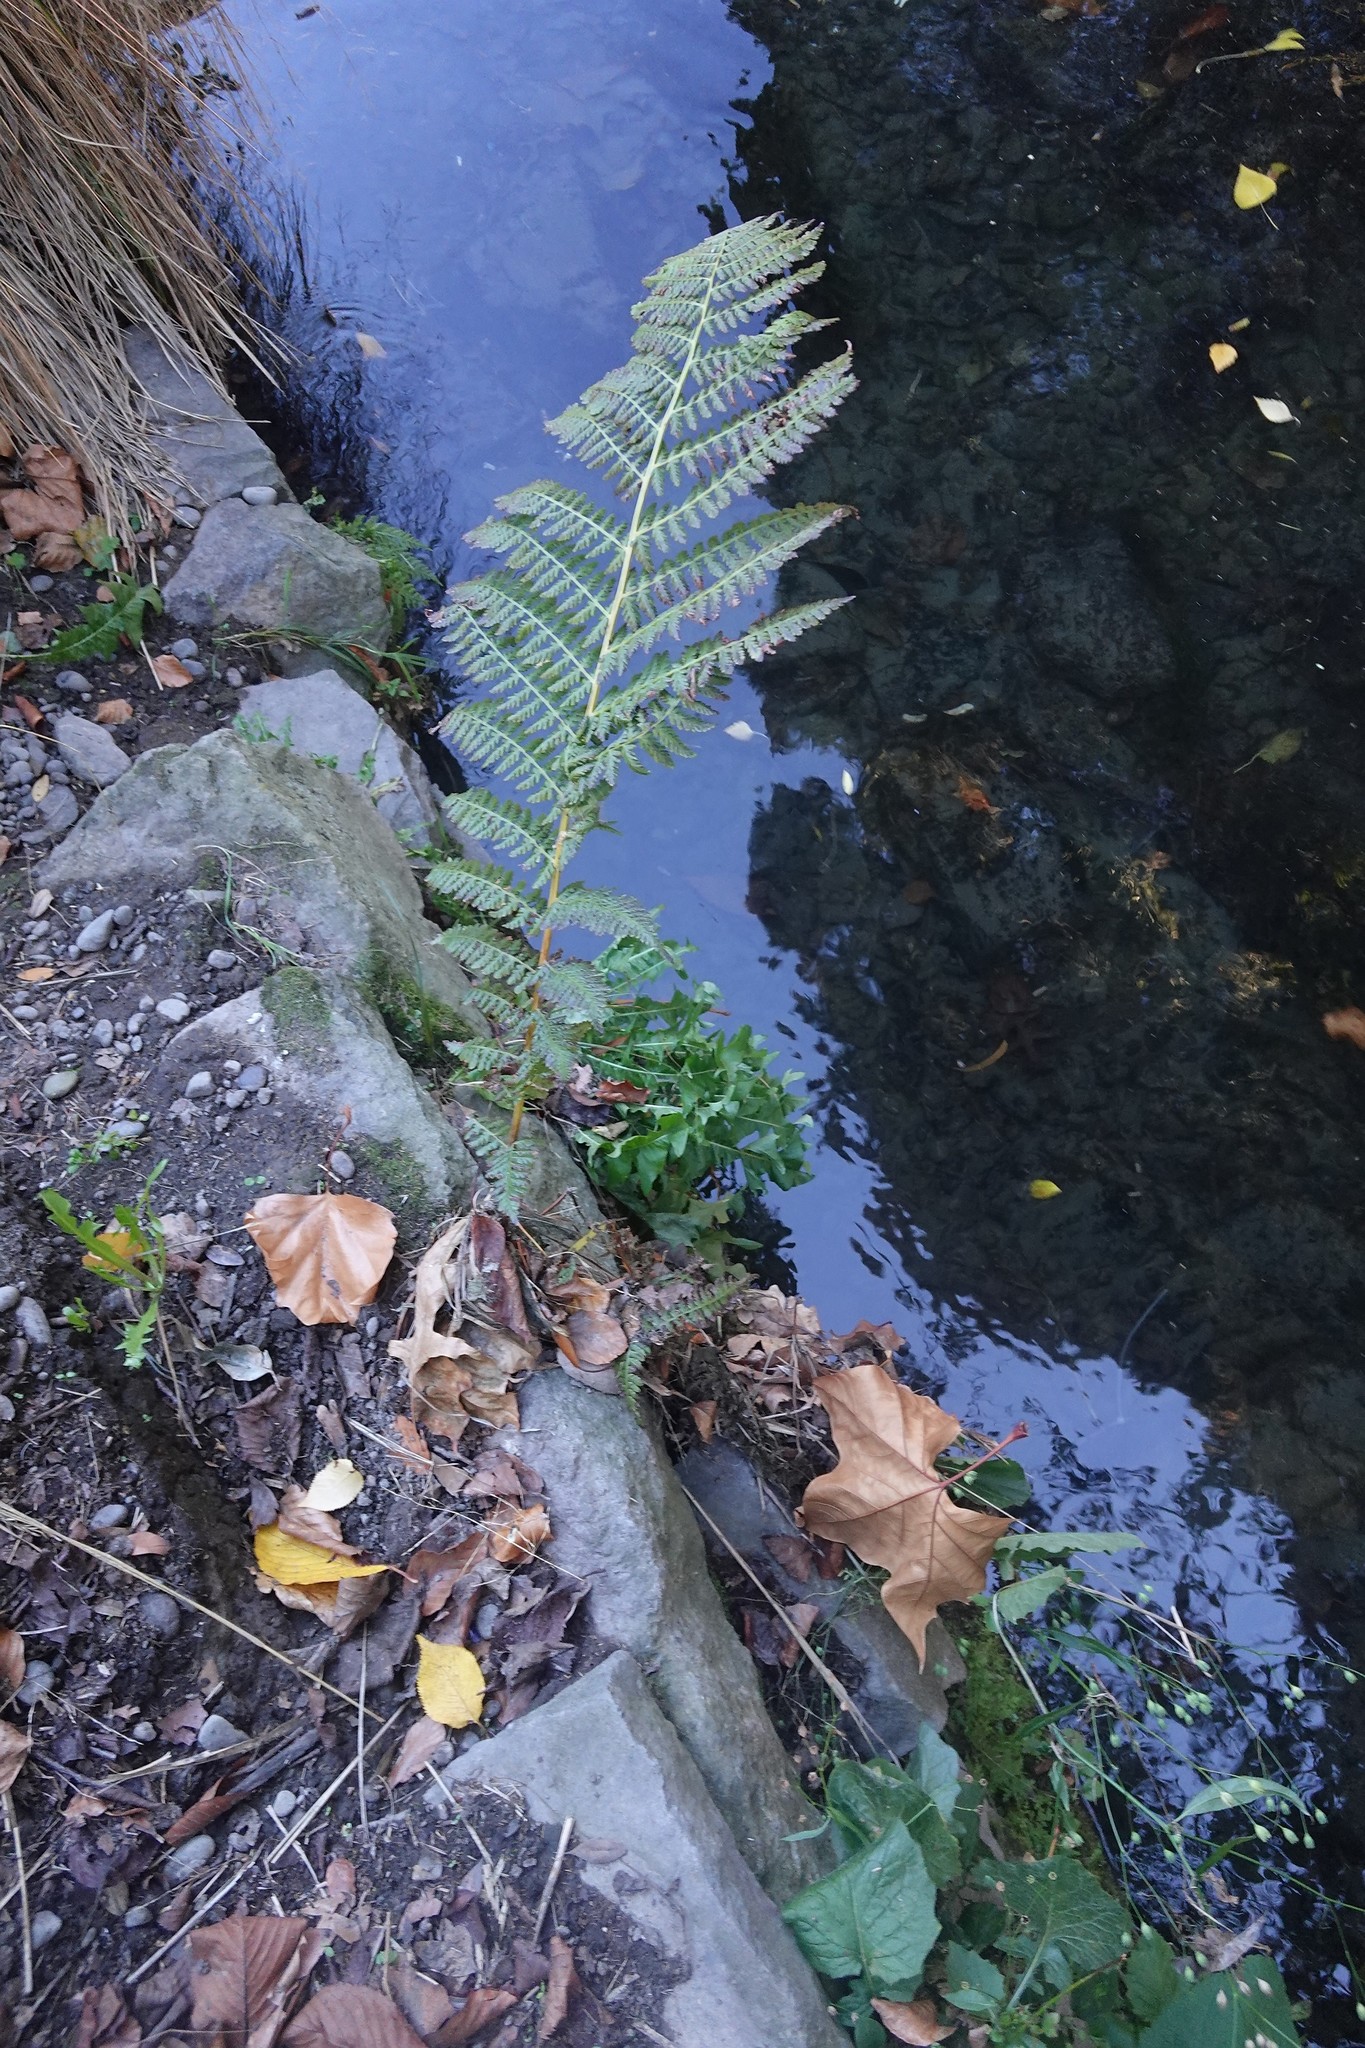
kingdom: Plantae
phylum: Tracheophyta
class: Polypodiopsida
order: Polypodiales
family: Athyriaceae
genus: Athyrium
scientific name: Athyrium filix-femina
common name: Lady fern
